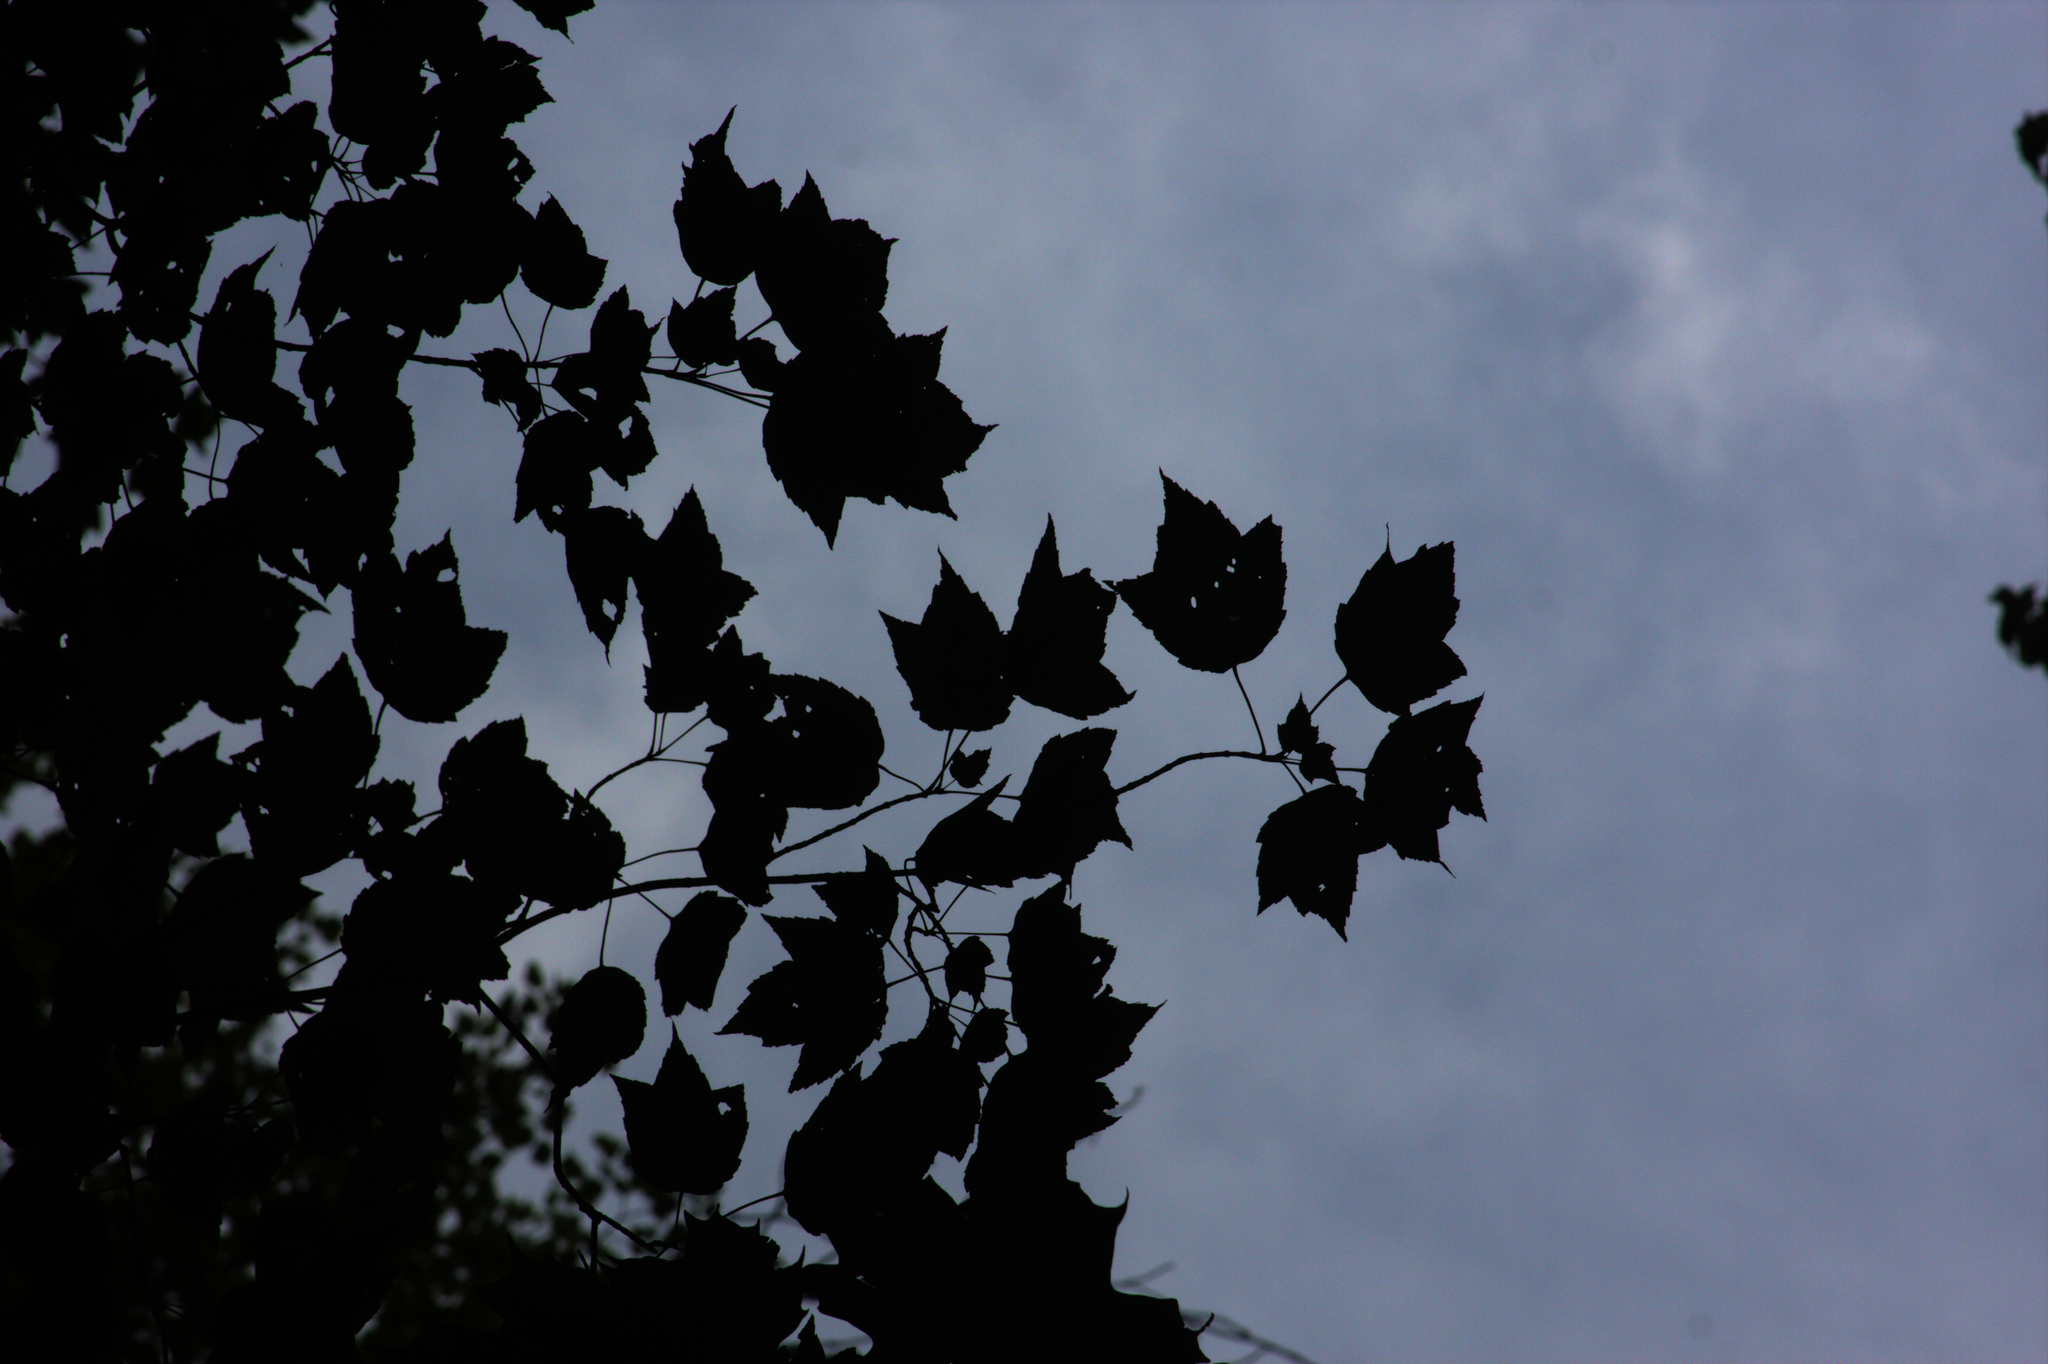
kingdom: Plantae
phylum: Tracheophyta
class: Magnoliopsida
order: Sapindales
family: Sapindaceae
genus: Acer
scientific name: Acer rubrum
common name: Red maple
